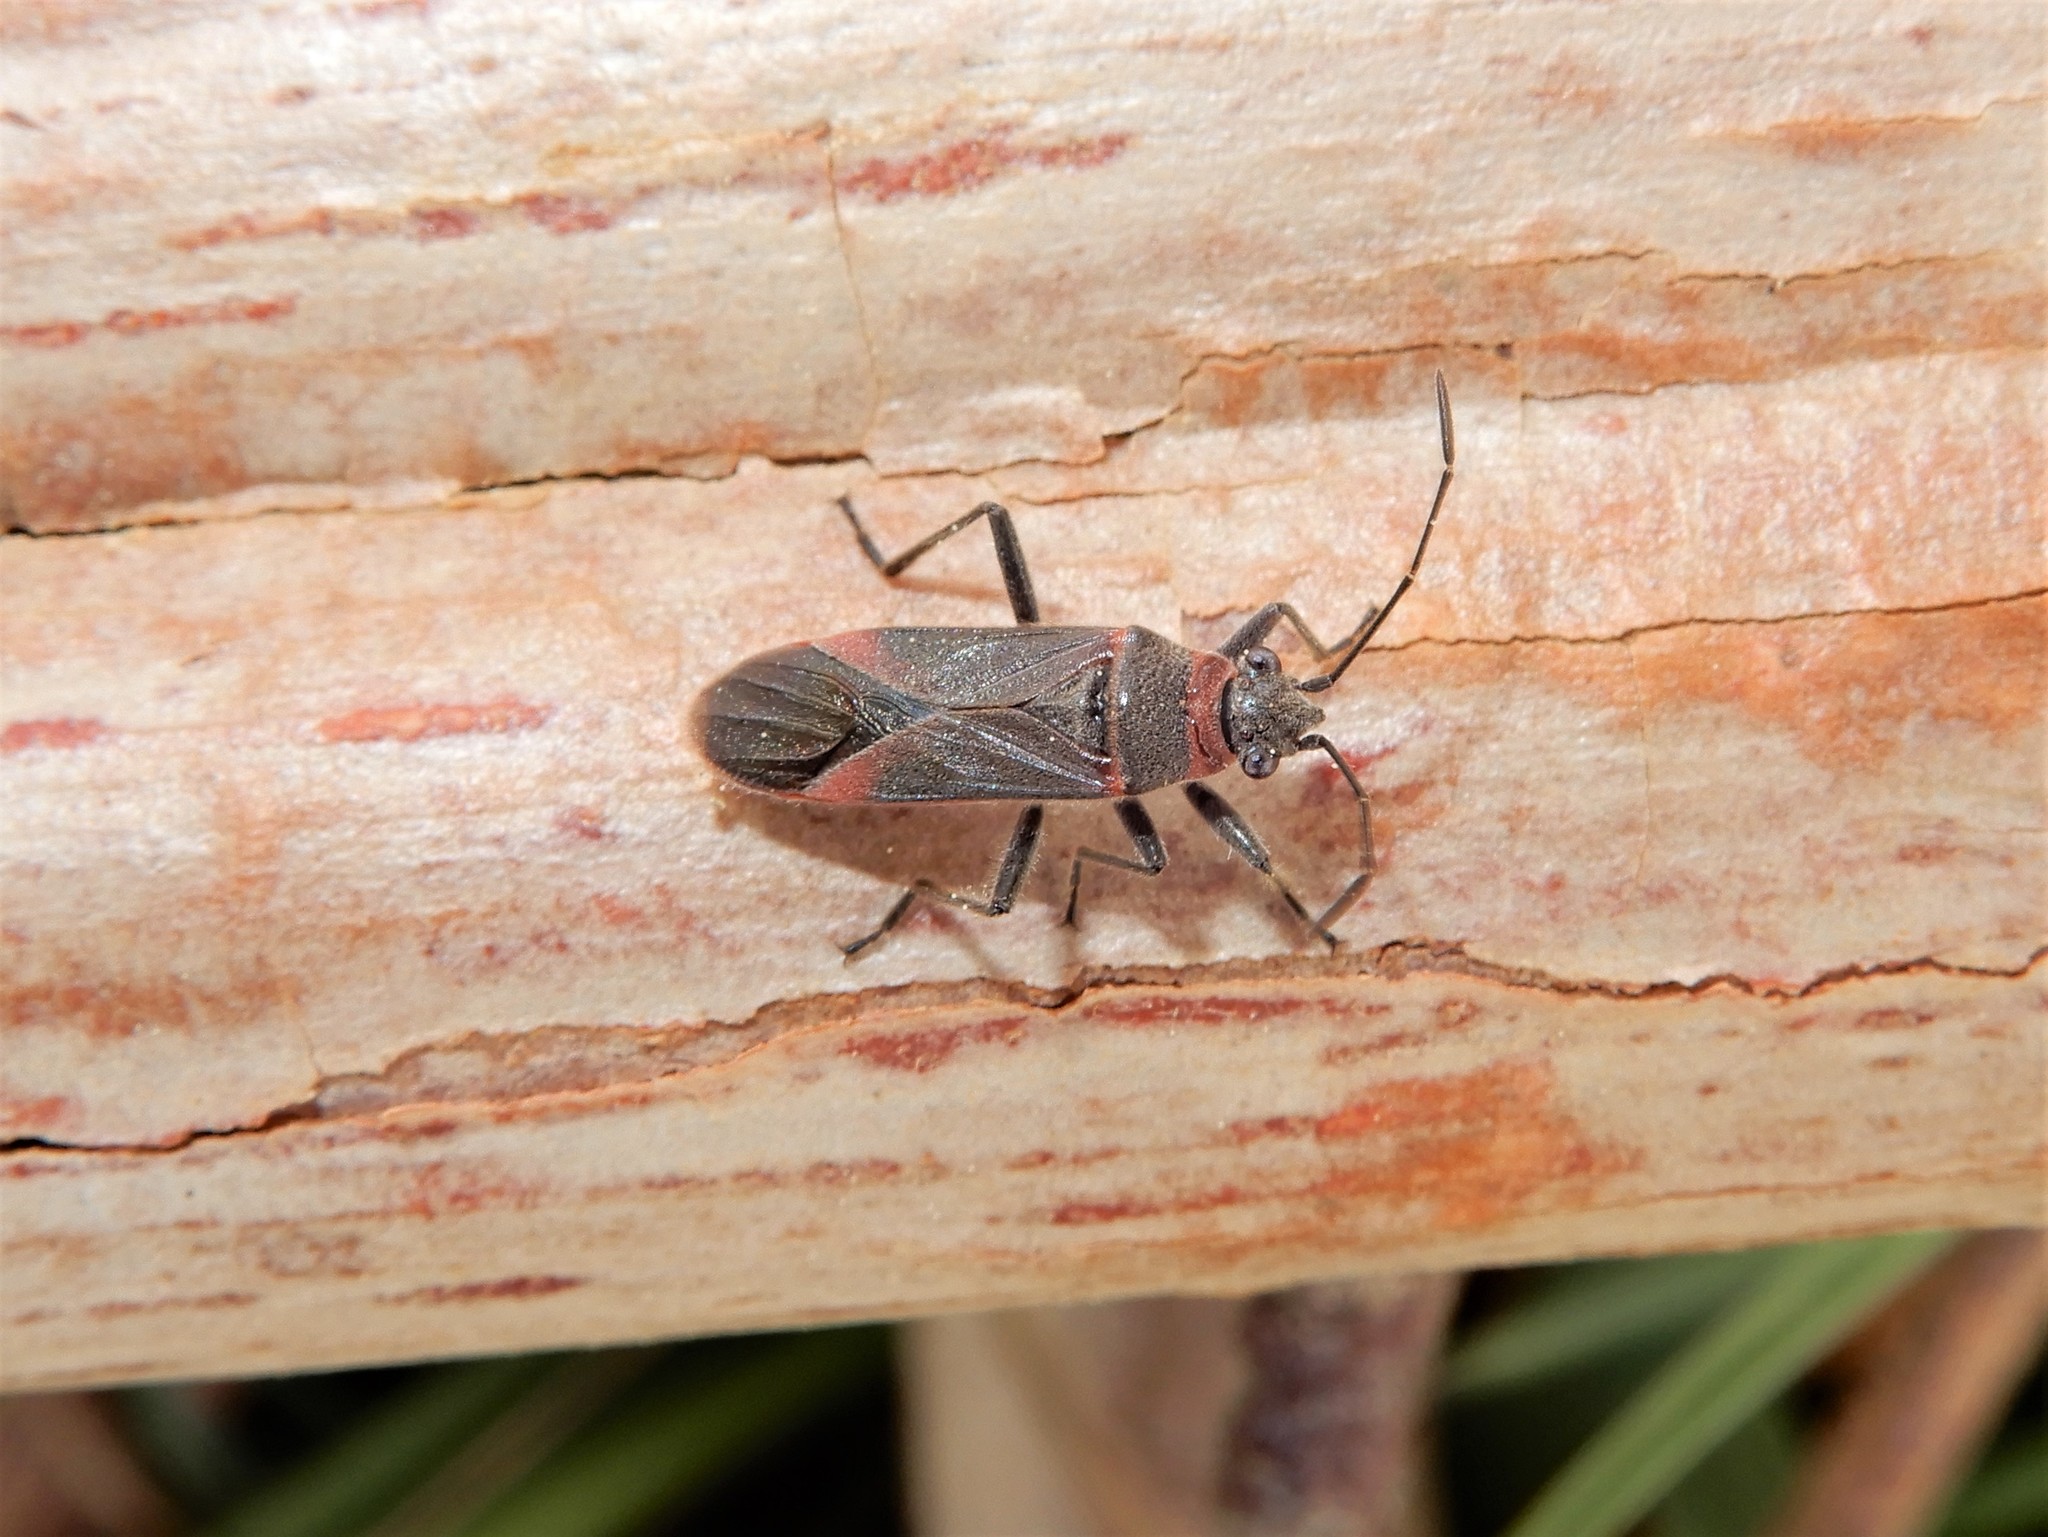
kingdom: Animalia
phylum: Arthropoda
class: Insecta
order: Hemiptera
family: Lygaeidae
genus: Arocatus
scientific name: Arocatus rusticus
